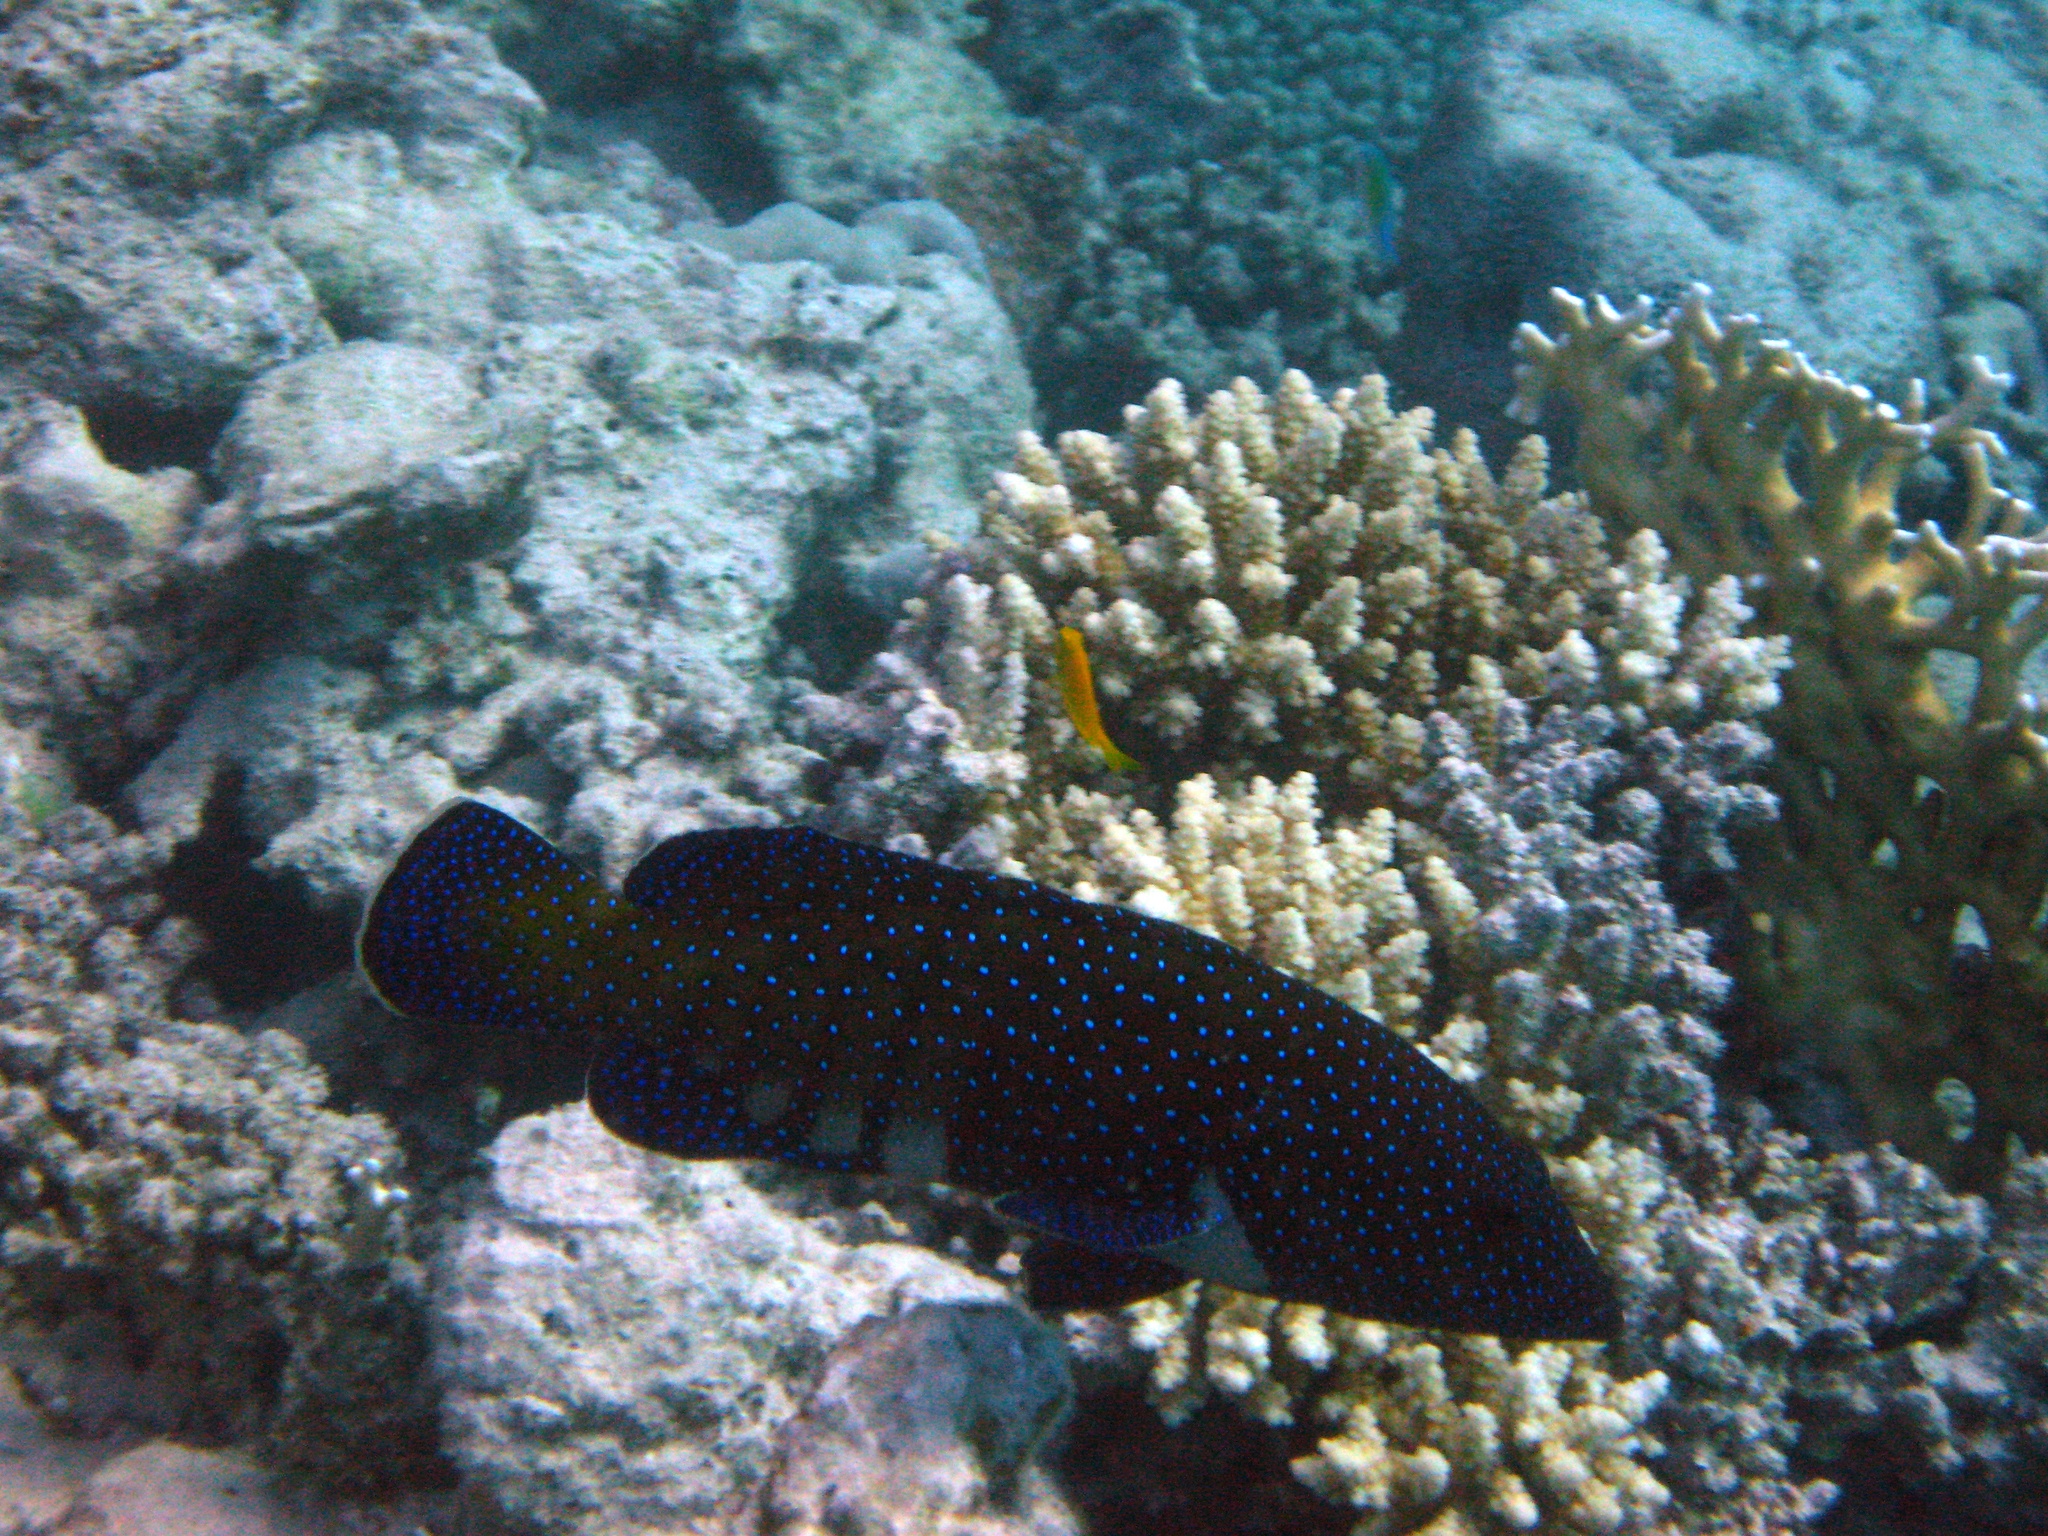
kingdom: Animalia
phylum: Chordata
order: Perciformes
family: Serranidae
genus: Cephalopholis
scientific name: Cephalopholis argus
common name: Peacock grouper
